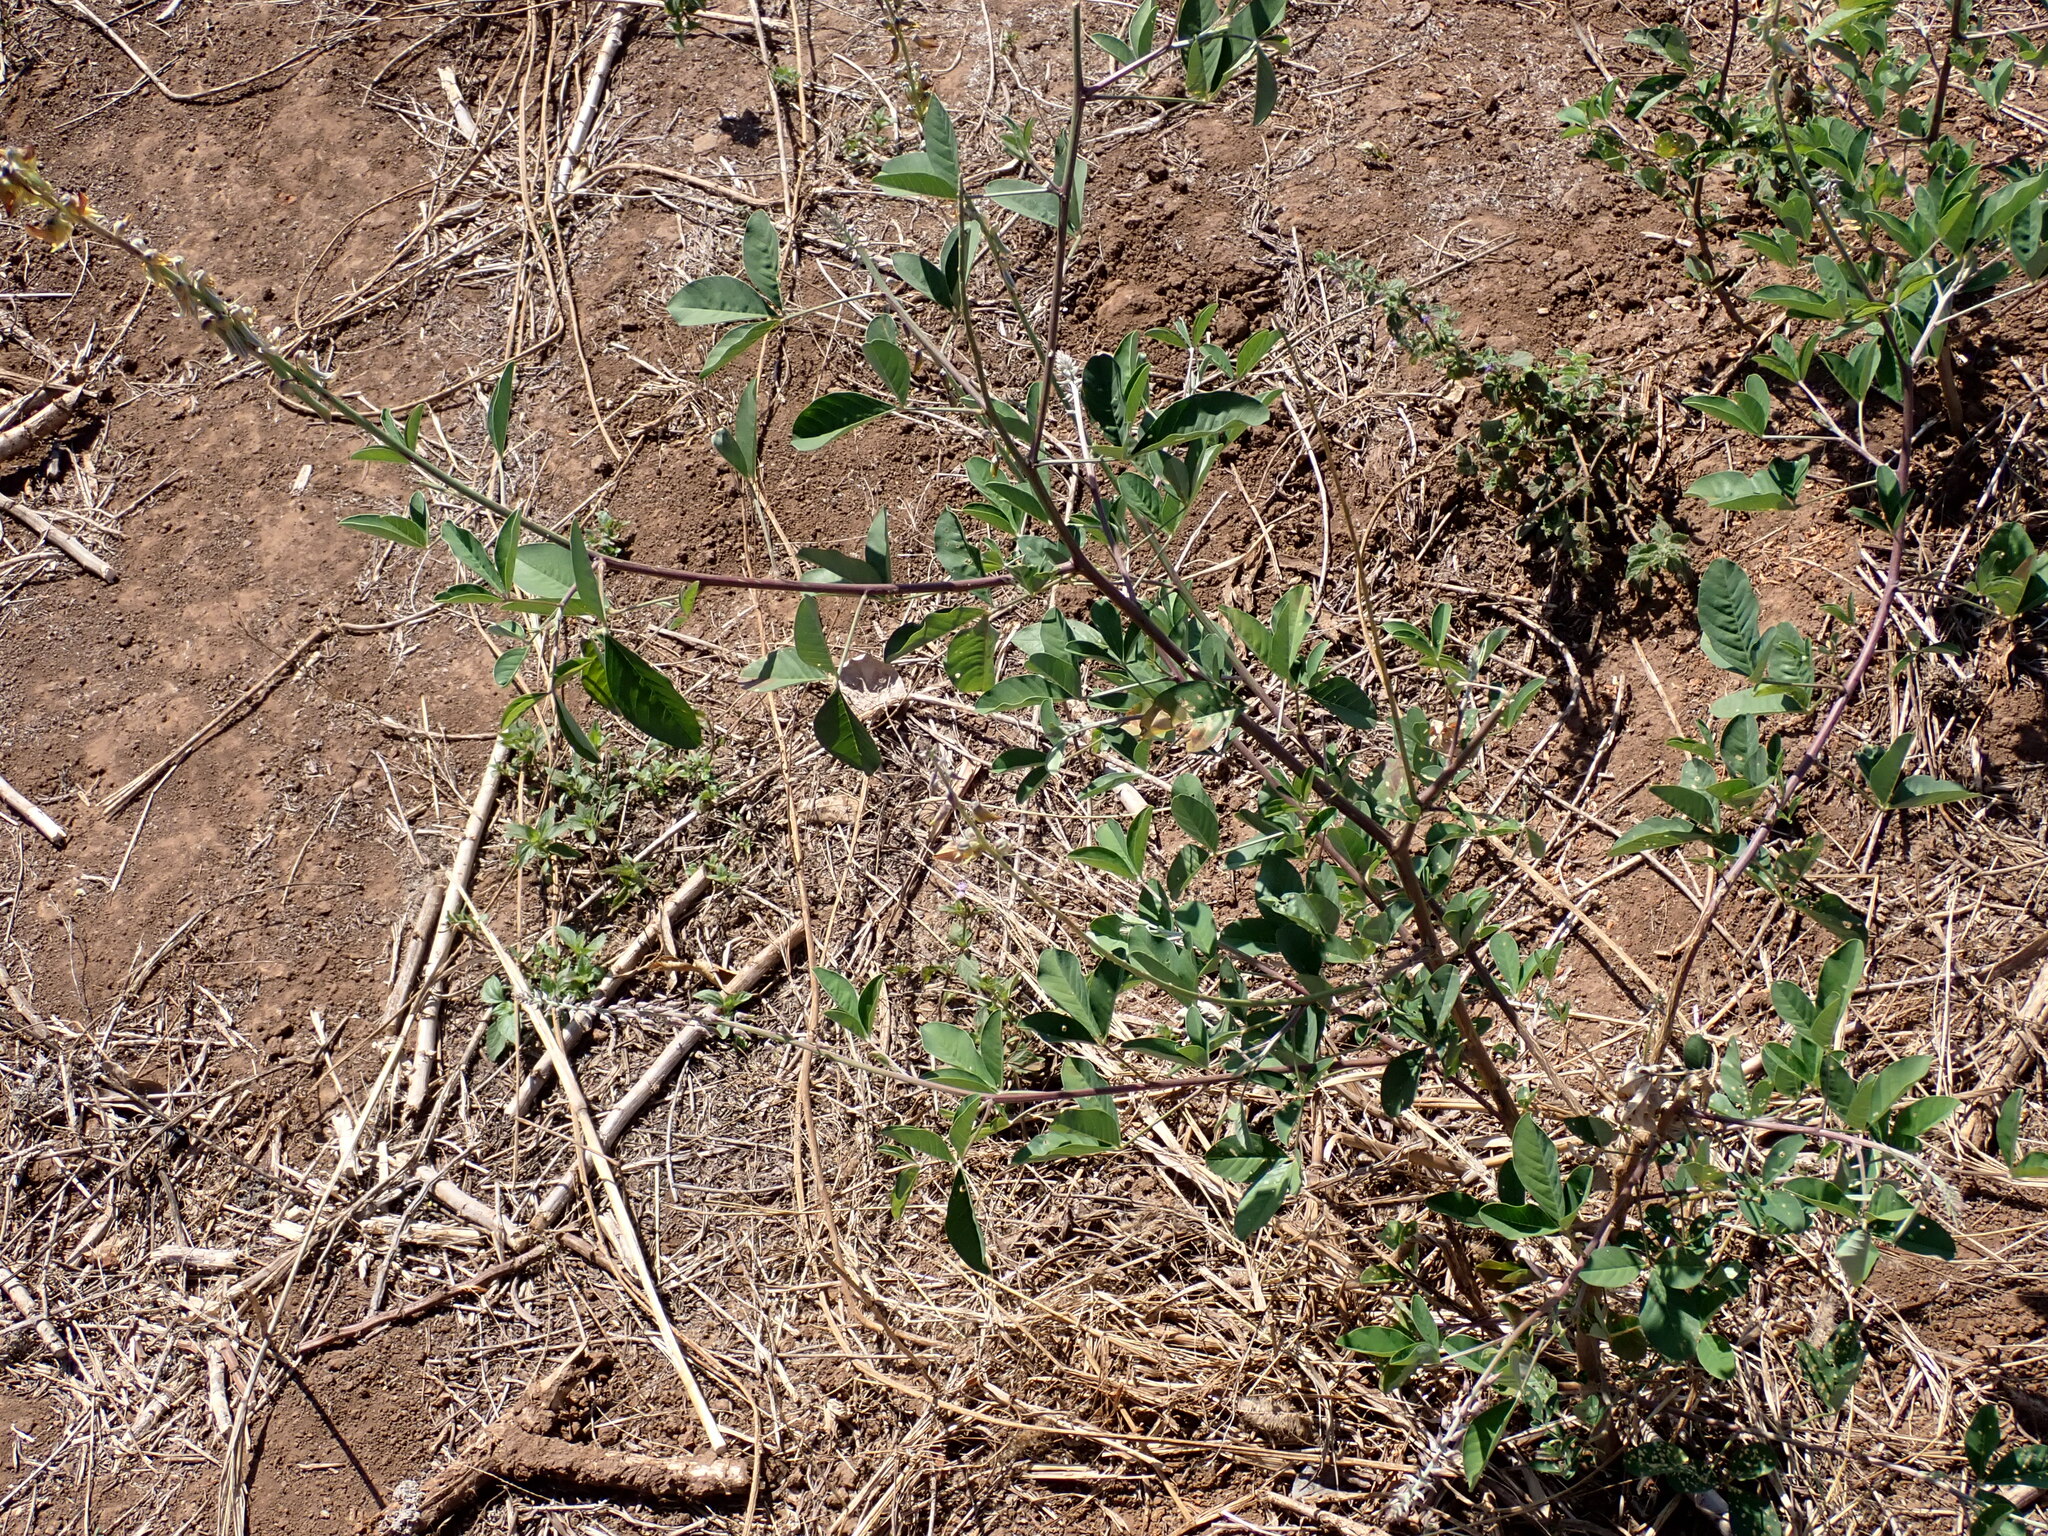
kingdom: Plantae
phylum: Tracheophyta
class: Magnoliopsida
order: Fabales
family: Fabaceae
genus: Crotalaria
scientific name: Crotalaria pallida
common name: Smooth rattlebox
